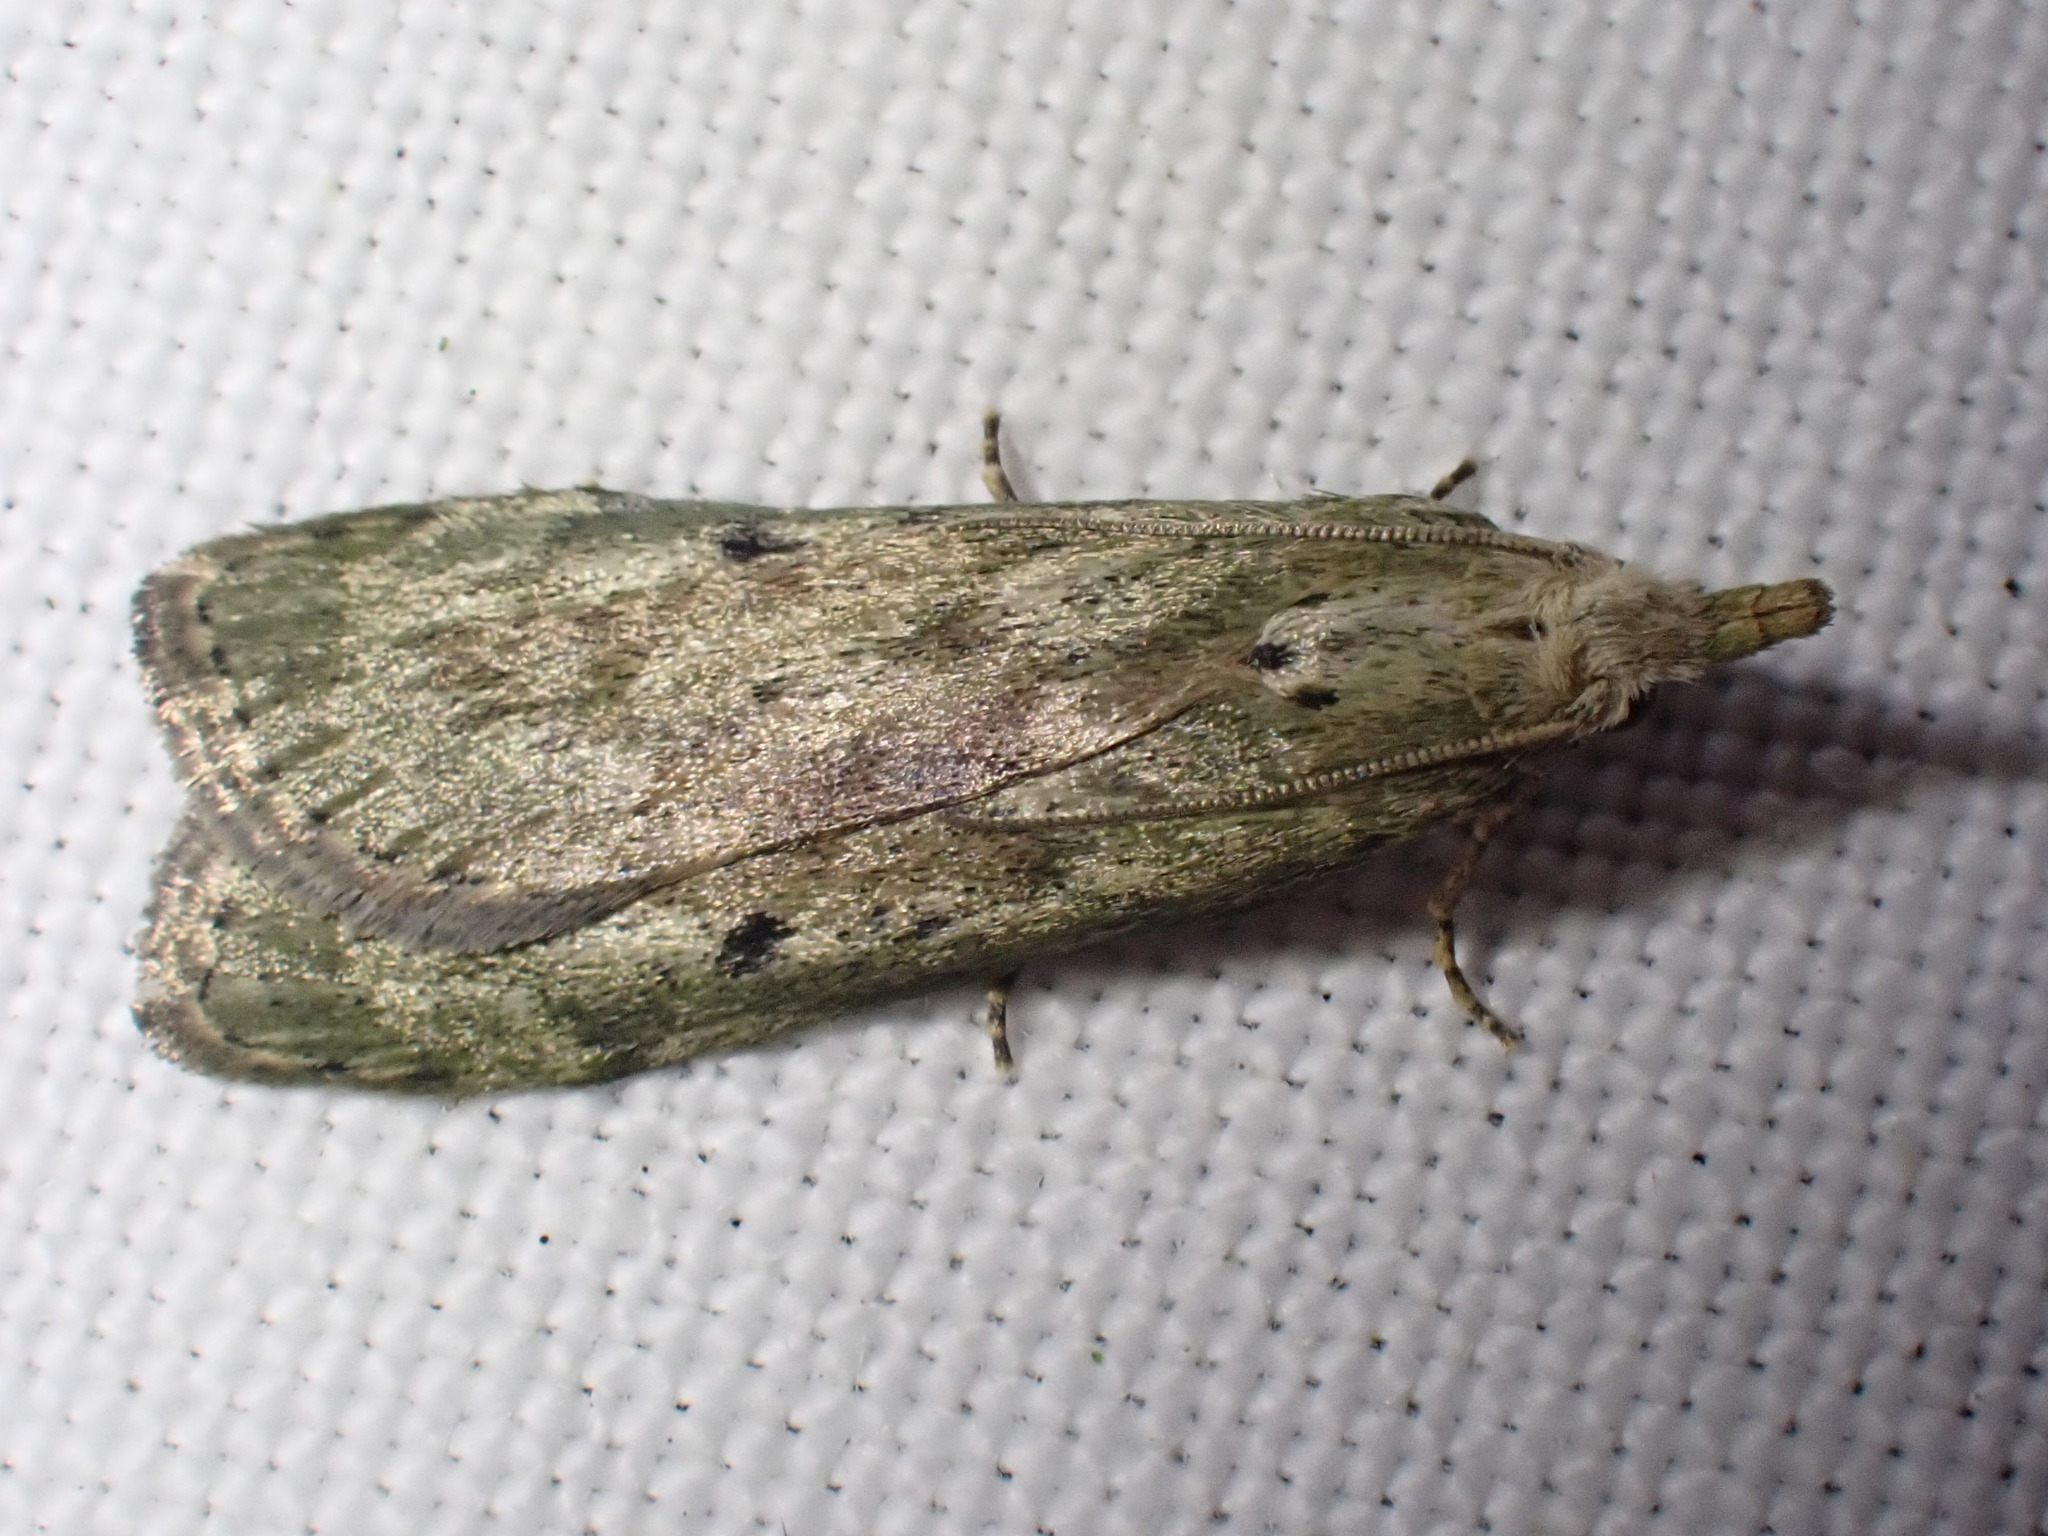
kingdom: Animalia
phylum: Arthropoda
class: Insecta
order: Lepidoptera
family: Pyralidae
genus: Aphomia
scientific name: Aphomia sociella
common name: Bee moth
